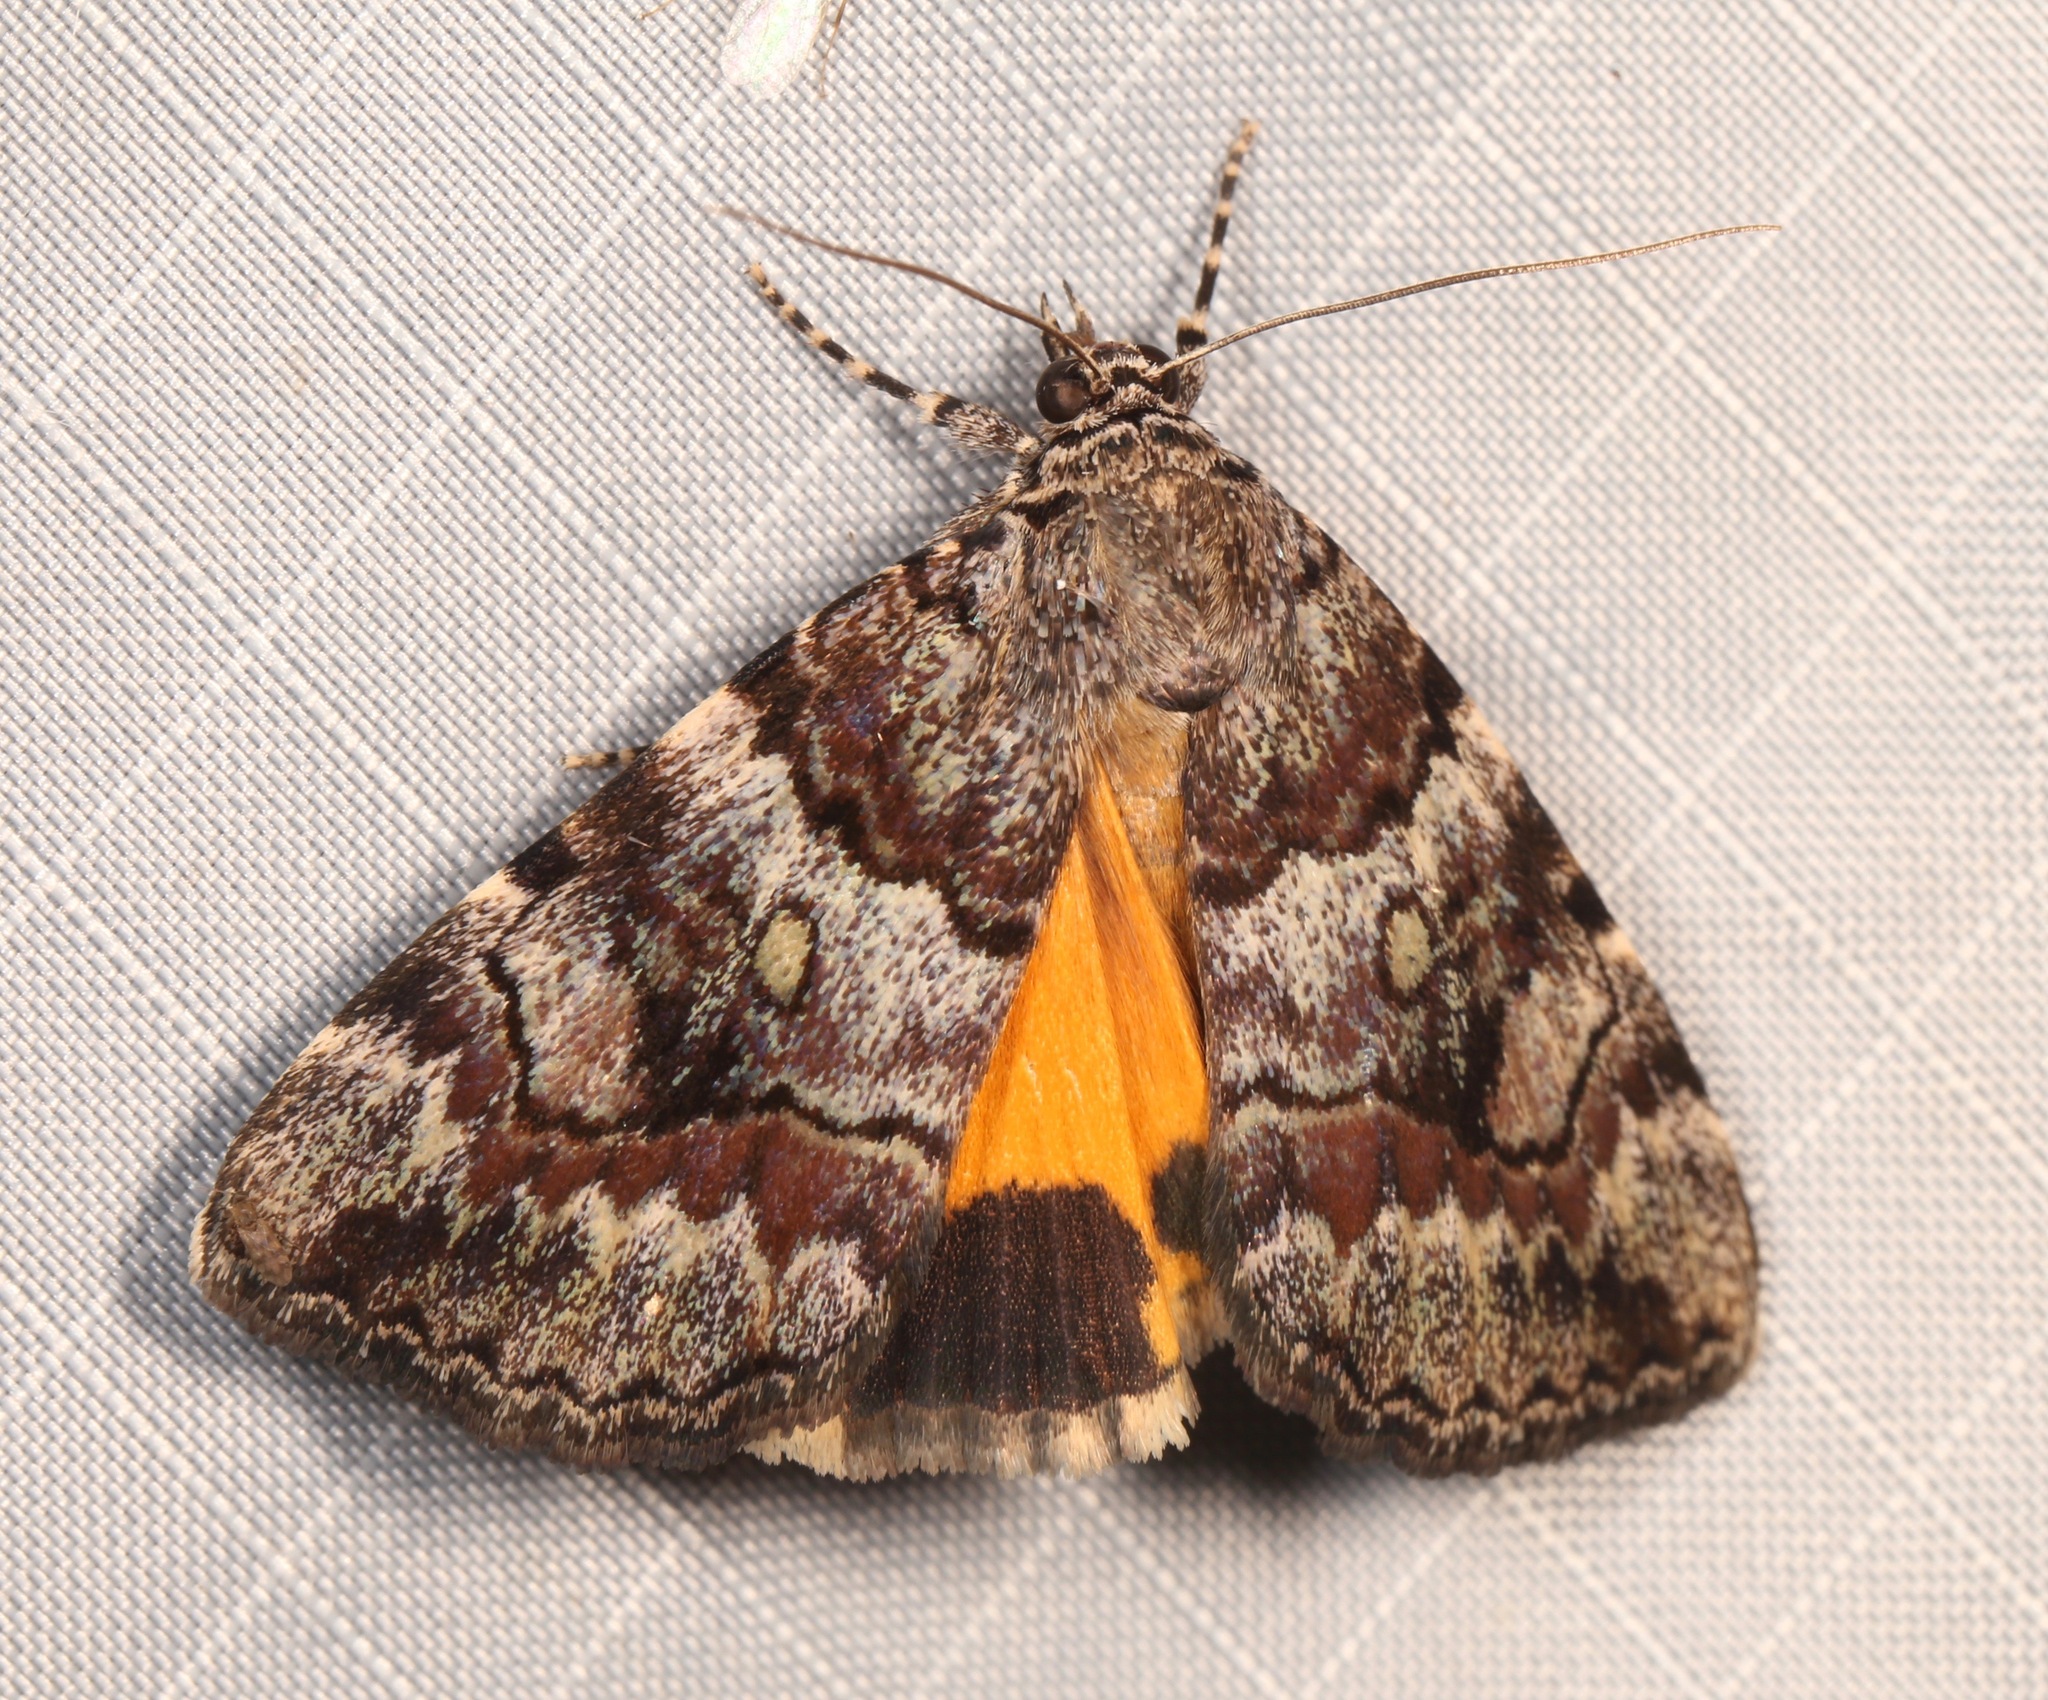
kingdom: Animalia
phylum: Arthropoda
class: Insecta
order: Lepidoptera
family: Erebidae
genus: Catocala
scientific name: Catocala jair
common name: Jair underwing
